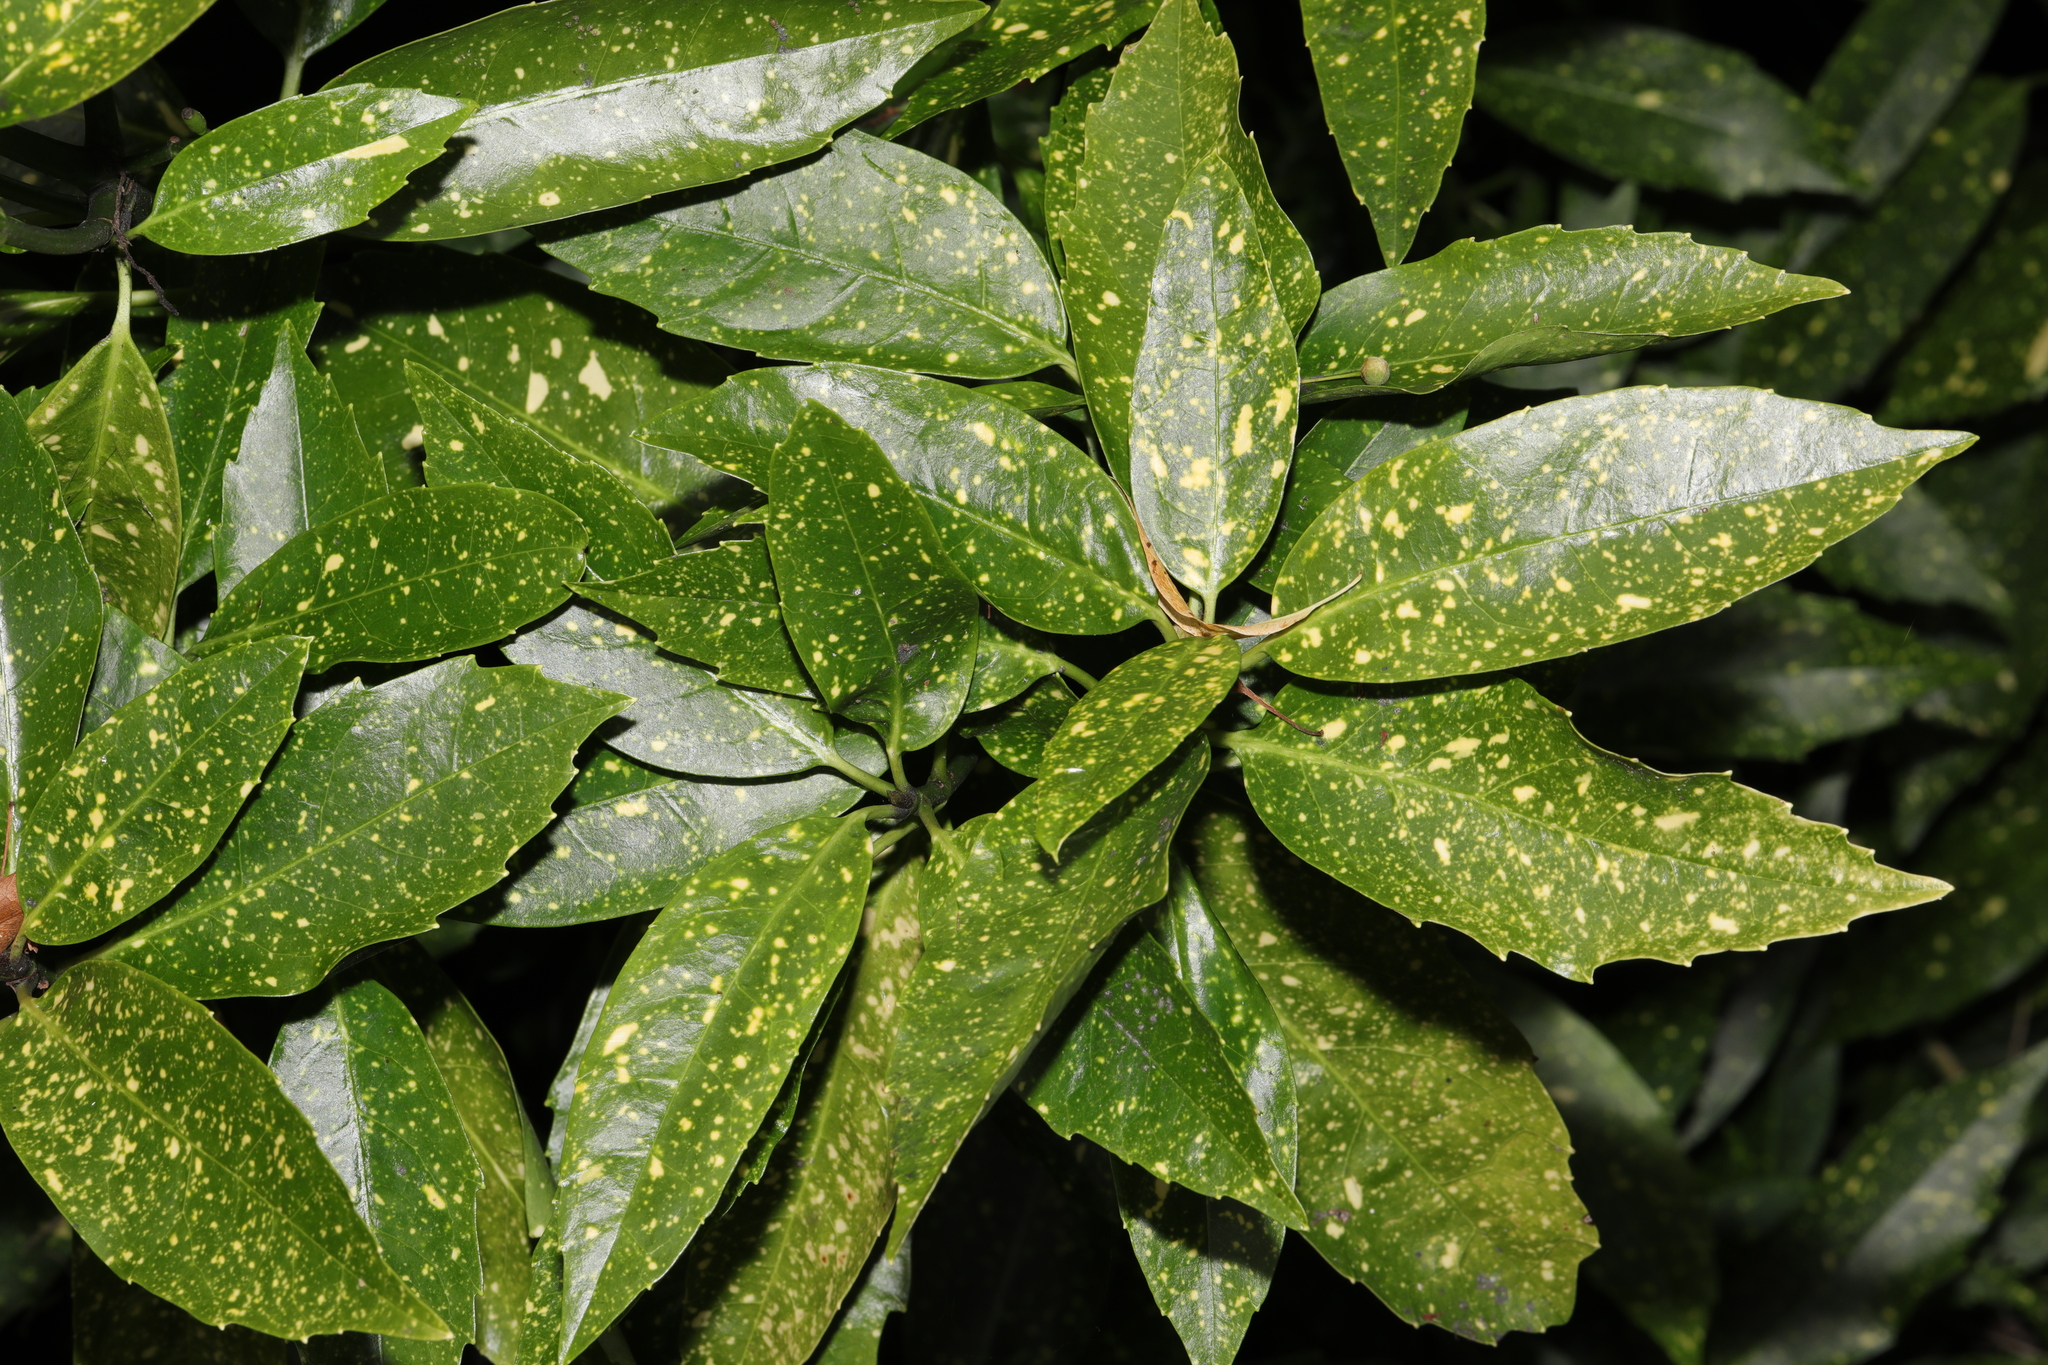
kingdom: Plantae
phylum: Tracheophyta
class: Magnoliopsida
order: Garryales
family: Garryaceae
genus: Aucuba
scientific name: Aucuba japonica
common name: Spotted-laurel
